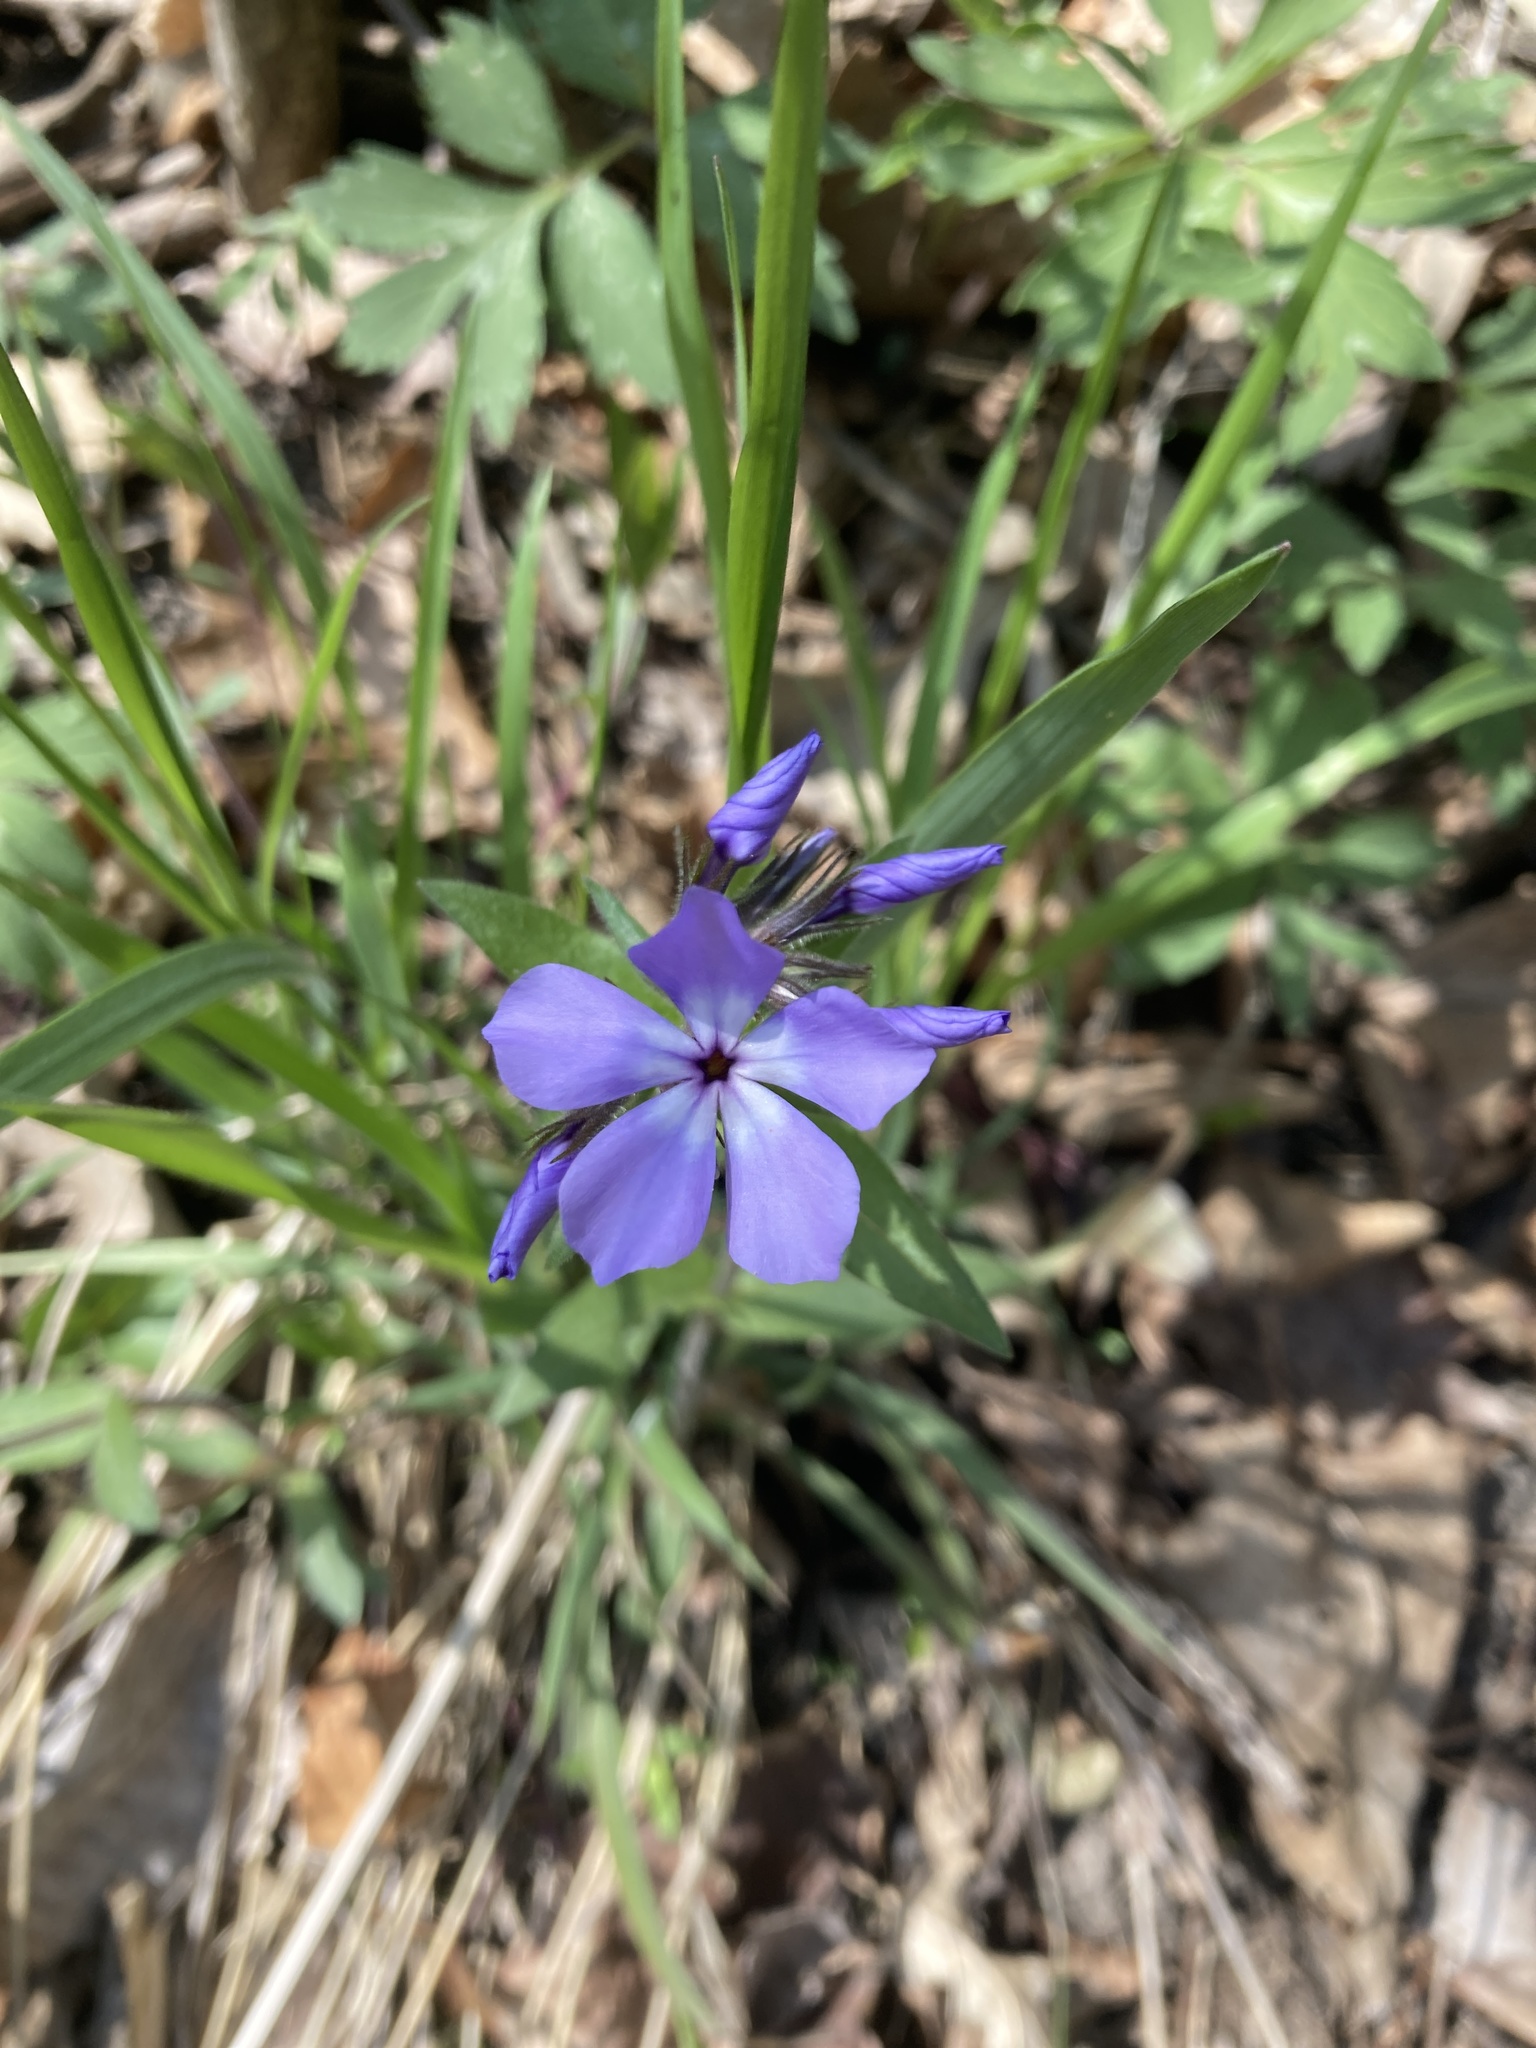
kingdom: Plantae
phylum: Tracheophyta
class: Magnoliopsida
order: Ericales
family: Polemoniaceae
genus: Phlox
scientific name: Phlox divaricata
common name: Blue phlox
